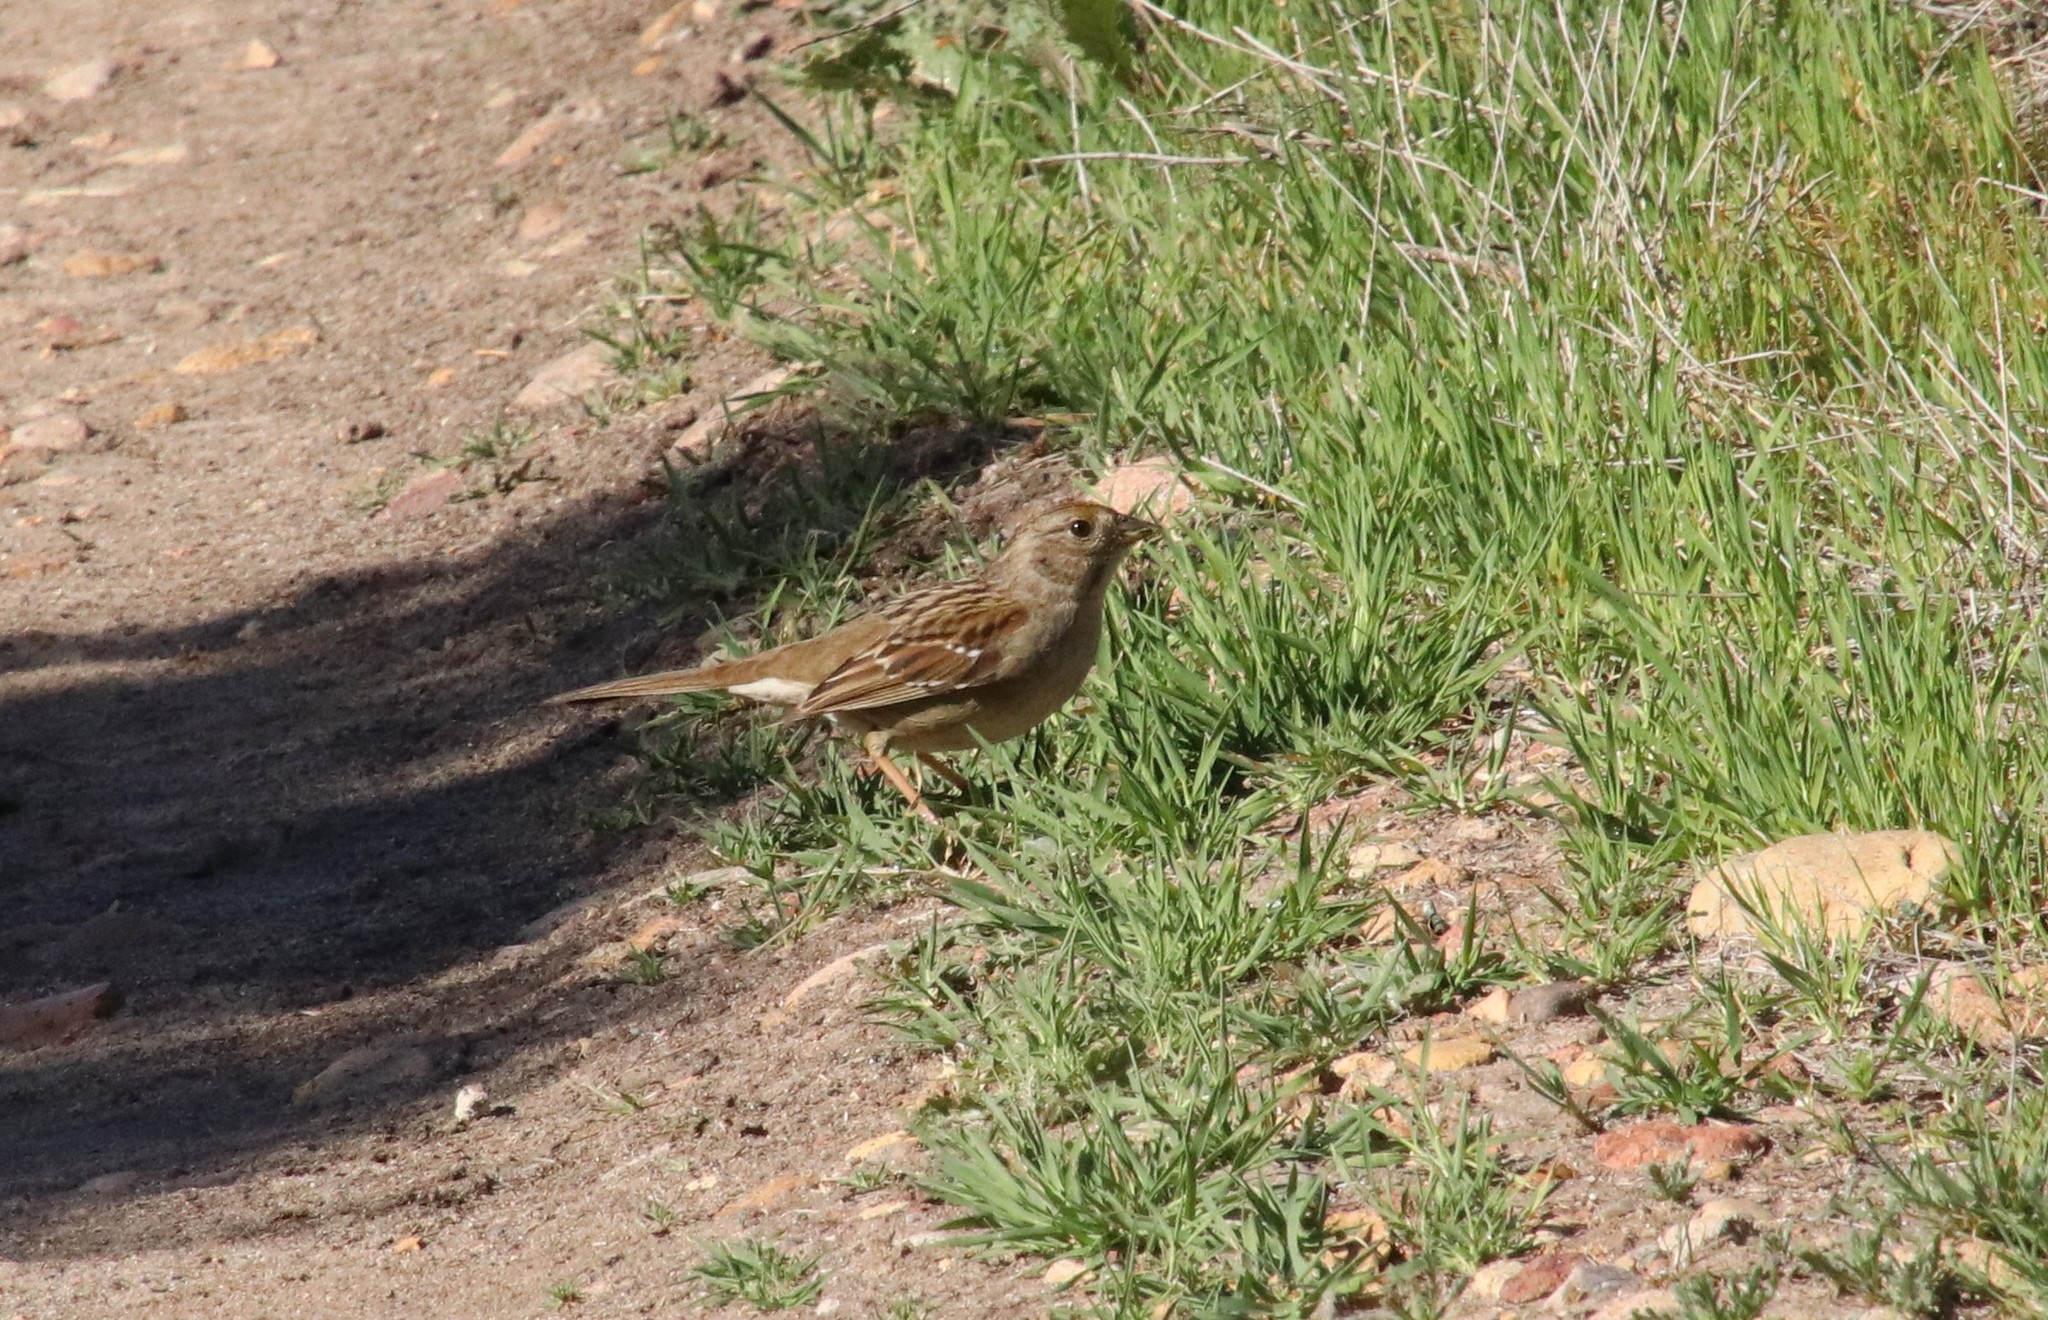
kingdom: Animalia
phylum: Chordata
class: Aves
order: Passeriformes
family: Passerellidae
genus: Zonotrichia
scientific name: Zonotrichia atricapilla
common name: Golden-crowned sparrow
